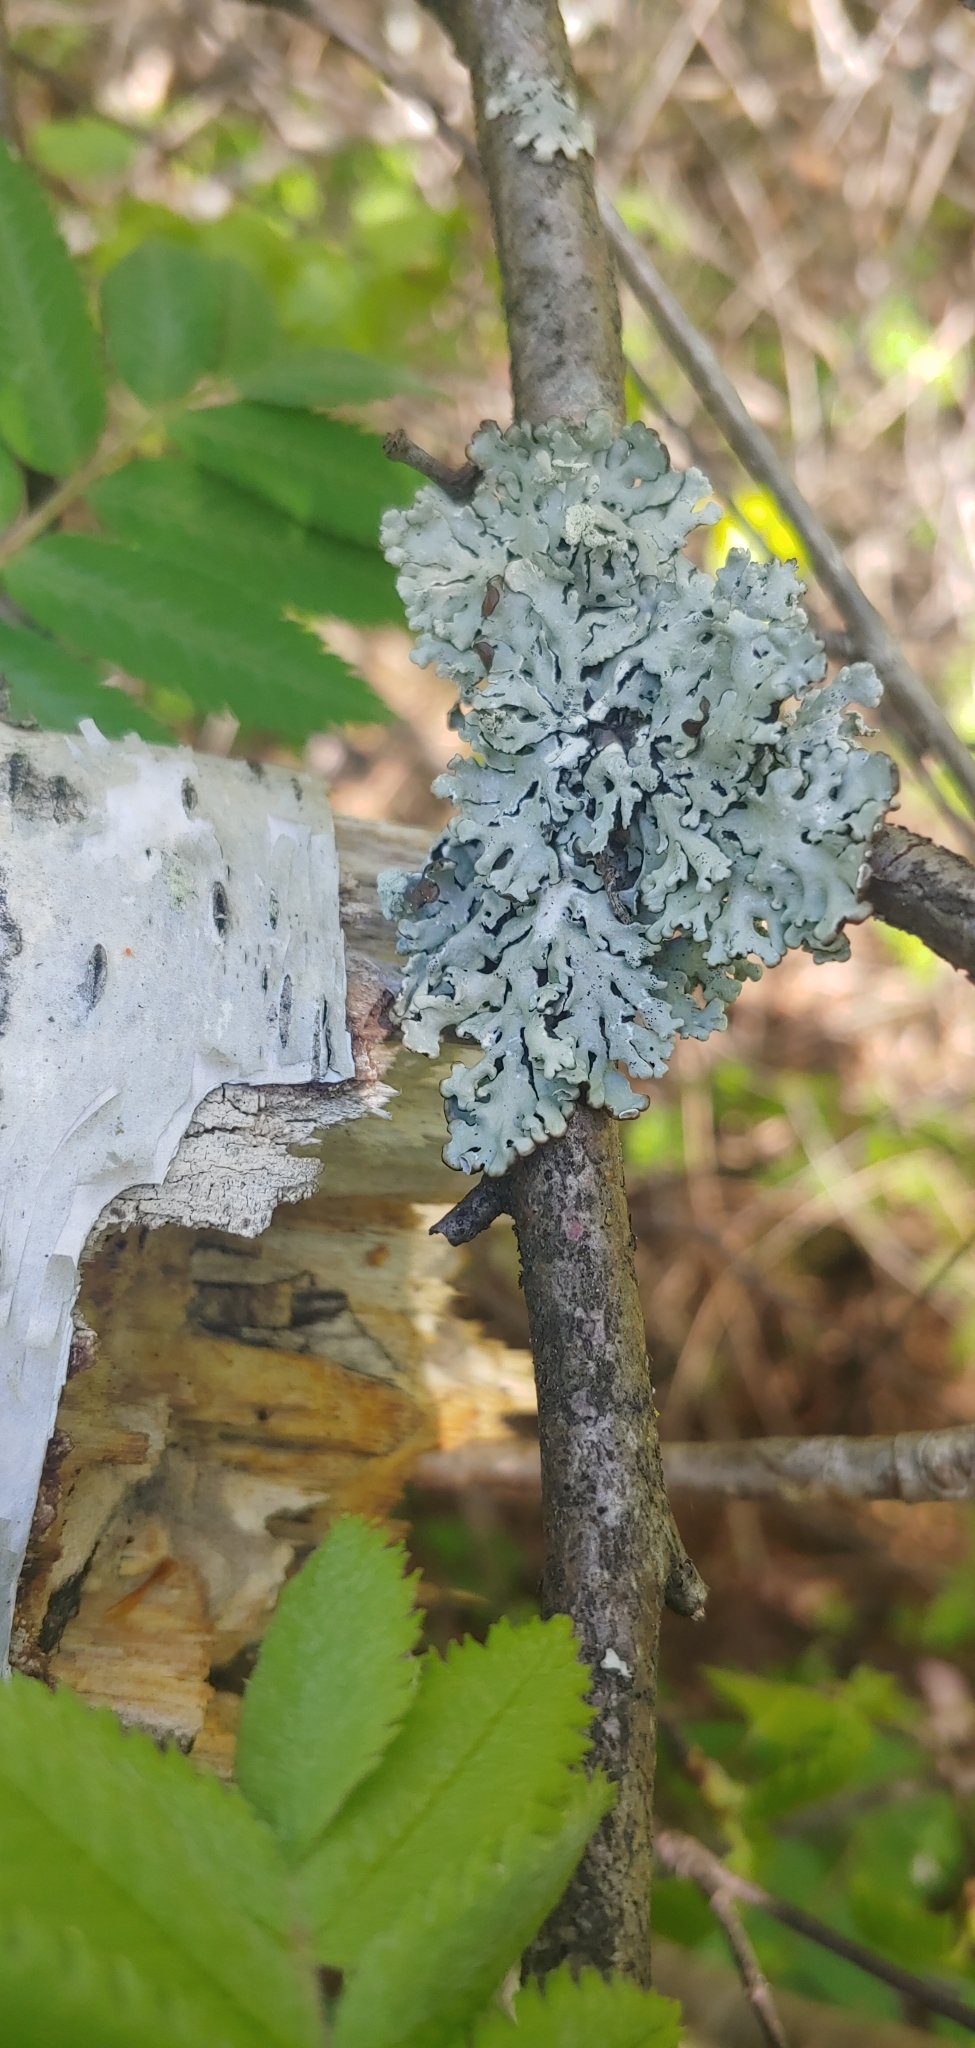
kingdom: Fungi
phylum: Ascomycota
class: Lecanoromycetes
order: Lecanorales
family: Parmeliaceae
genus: Hypogymnia
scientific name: Hypogymnia physodes
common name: Dark crottle
